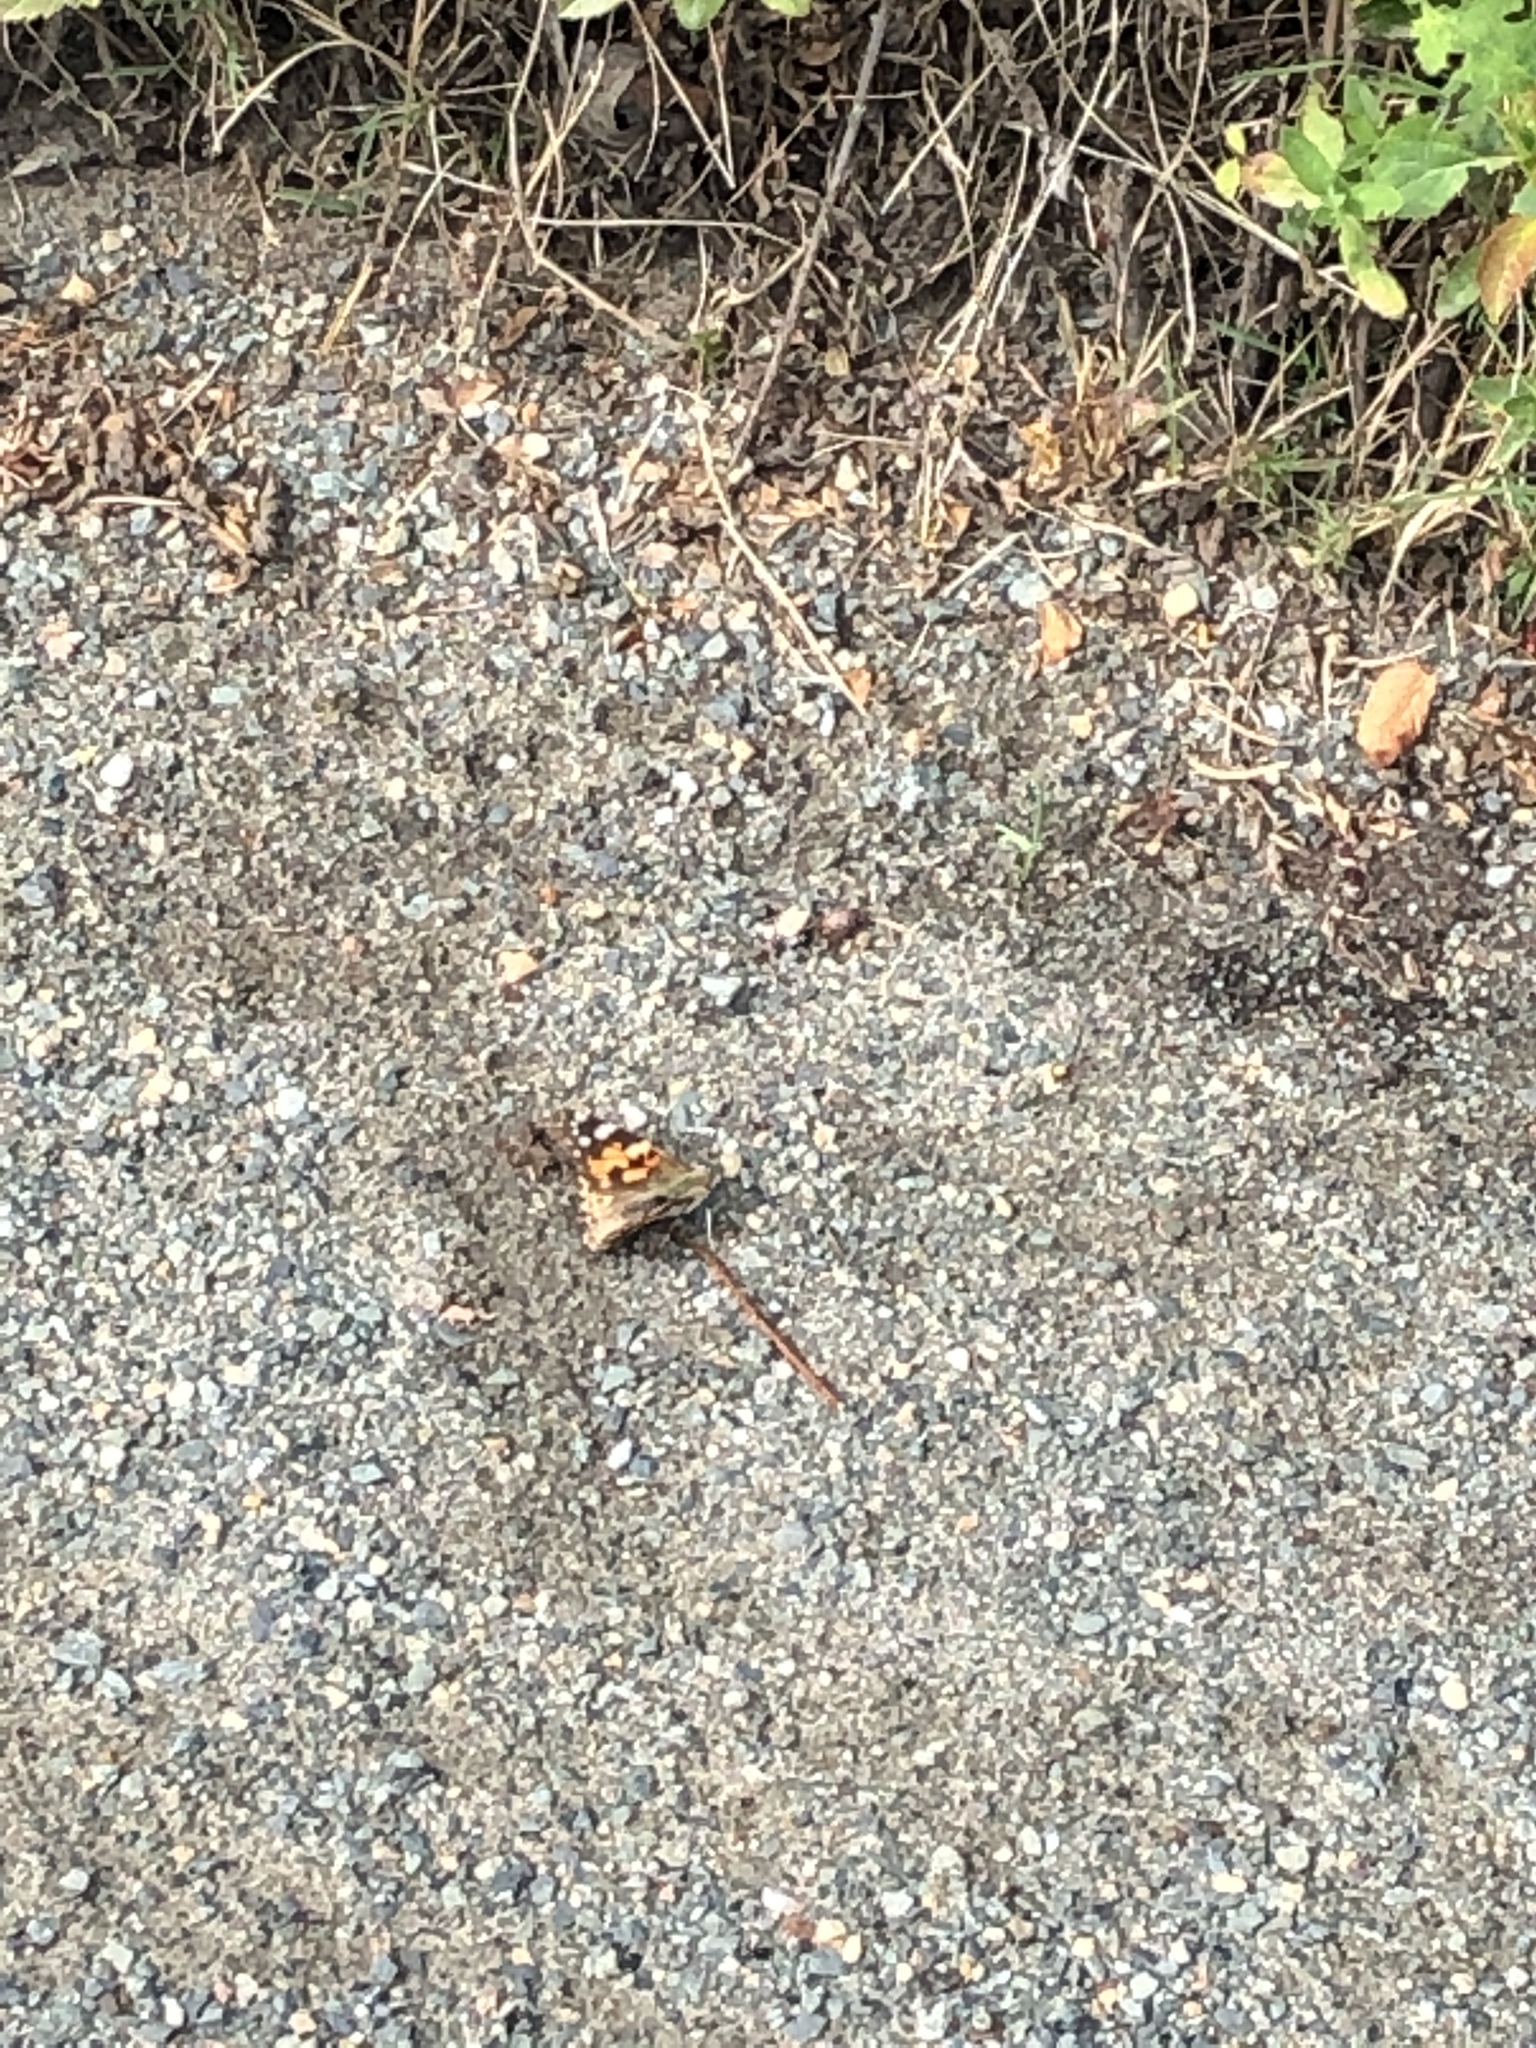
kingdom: Animalia
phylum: Arthropoda
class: Insecta
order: Lepidoptera
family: Nymphalidae
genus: Vanessa
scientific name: Vanessa cardui
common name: Painted lady
